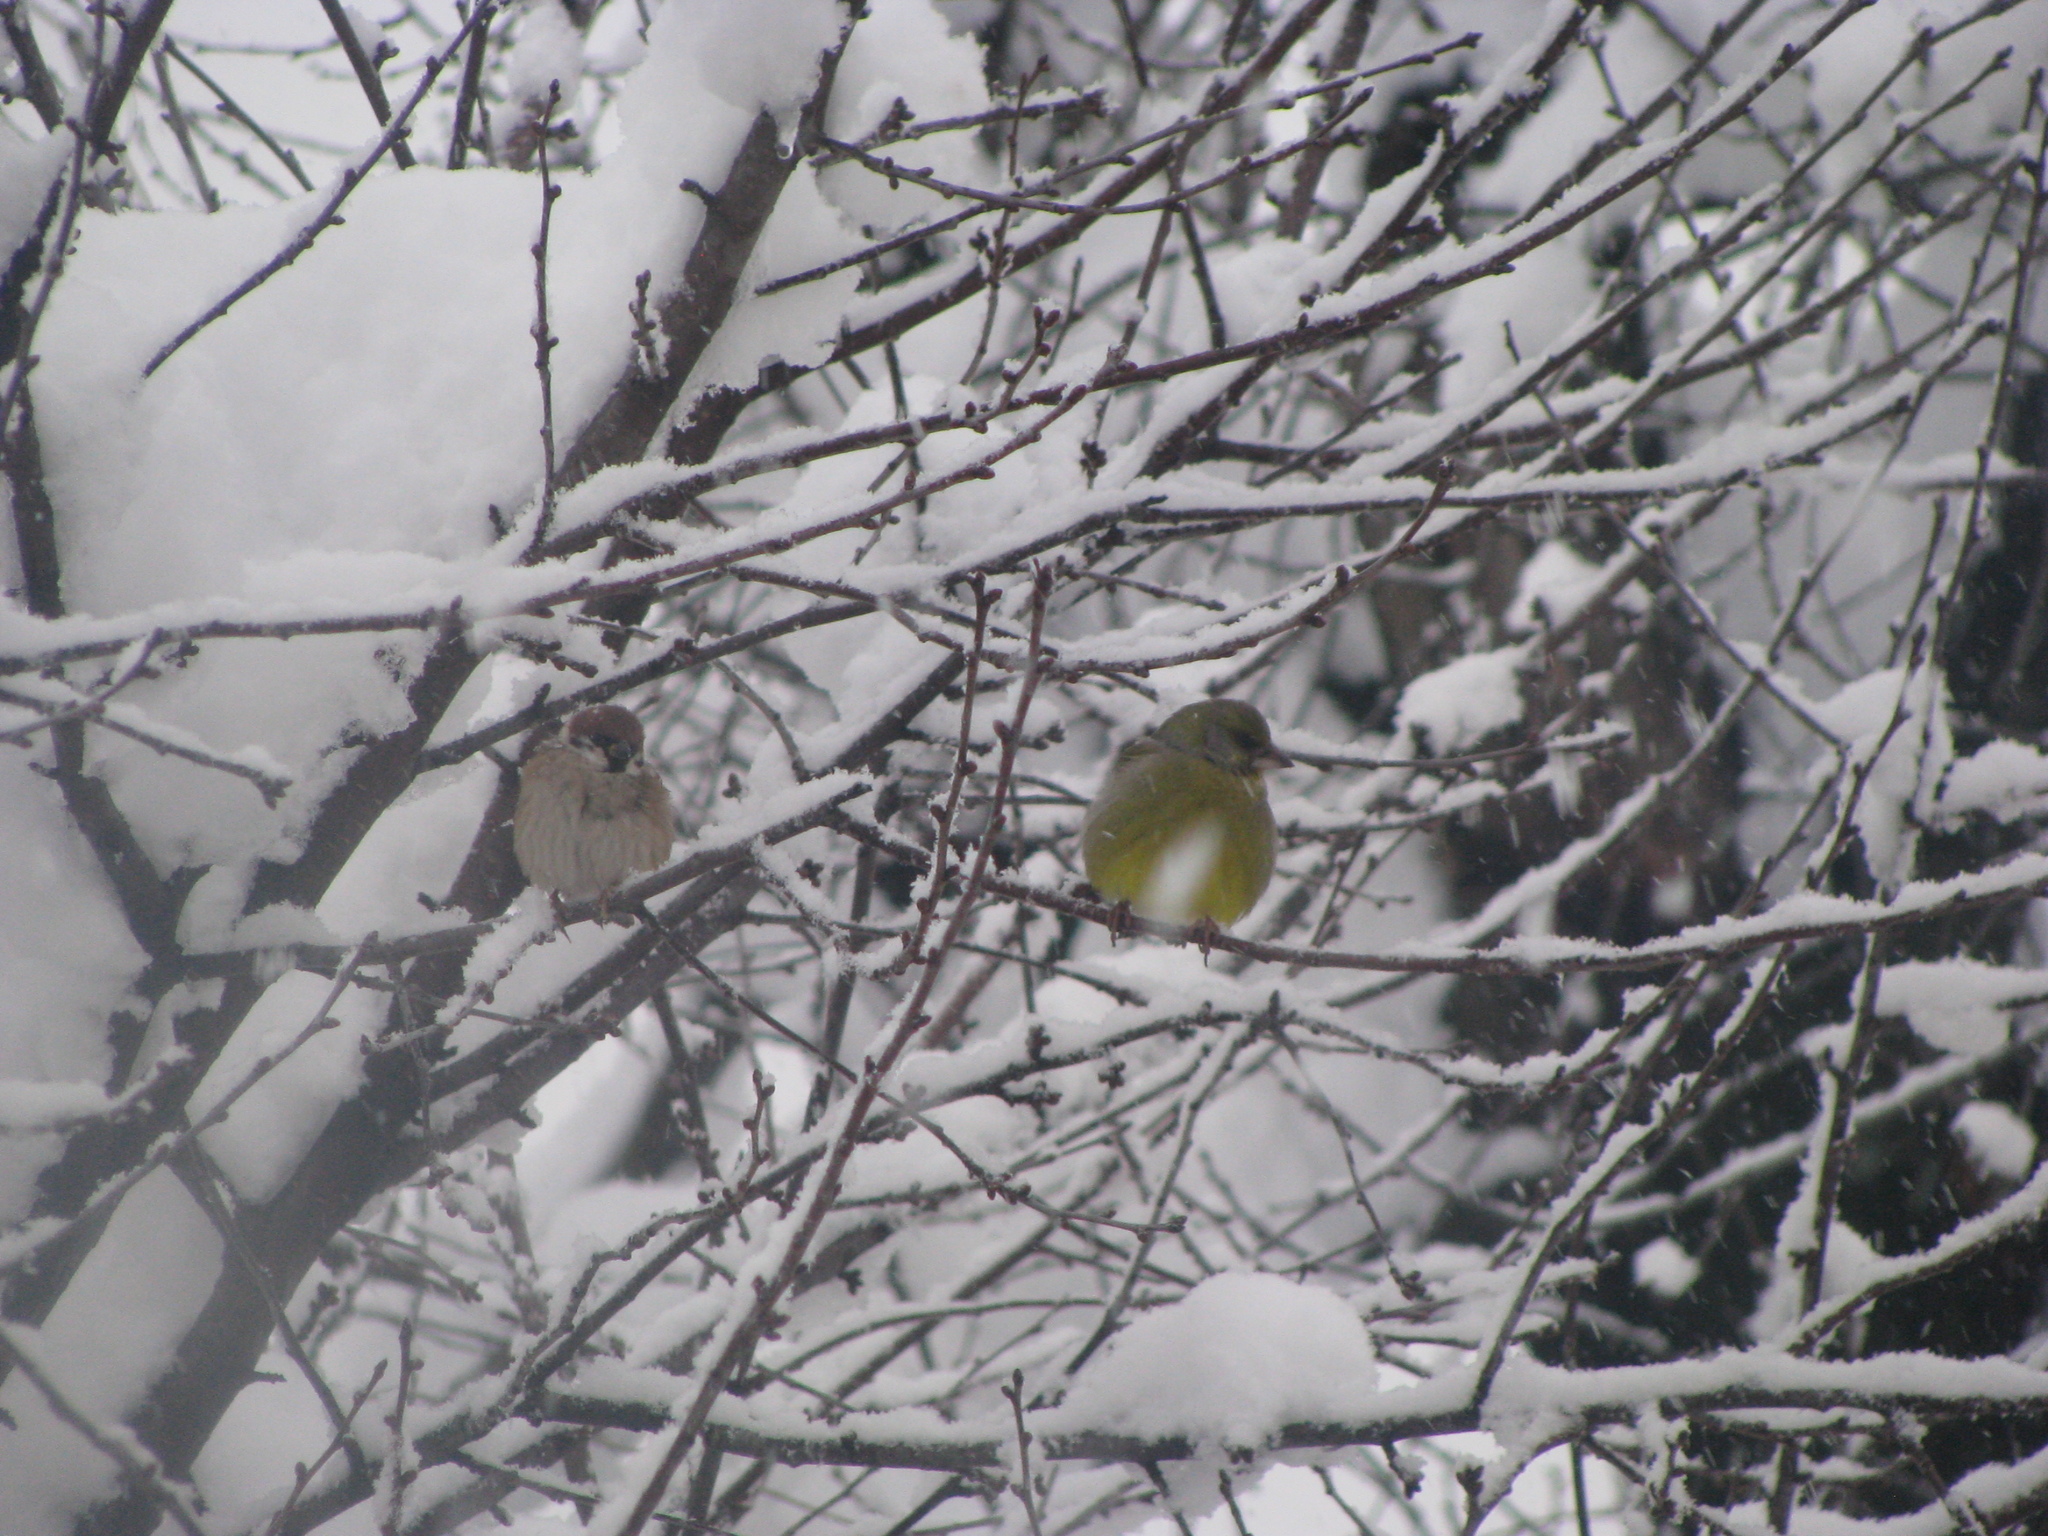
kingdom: Plantae
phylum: Tracheophyta
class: Liliopsida
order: Poales
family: Poaceae
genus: Chloris
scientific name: Chloris chloris
